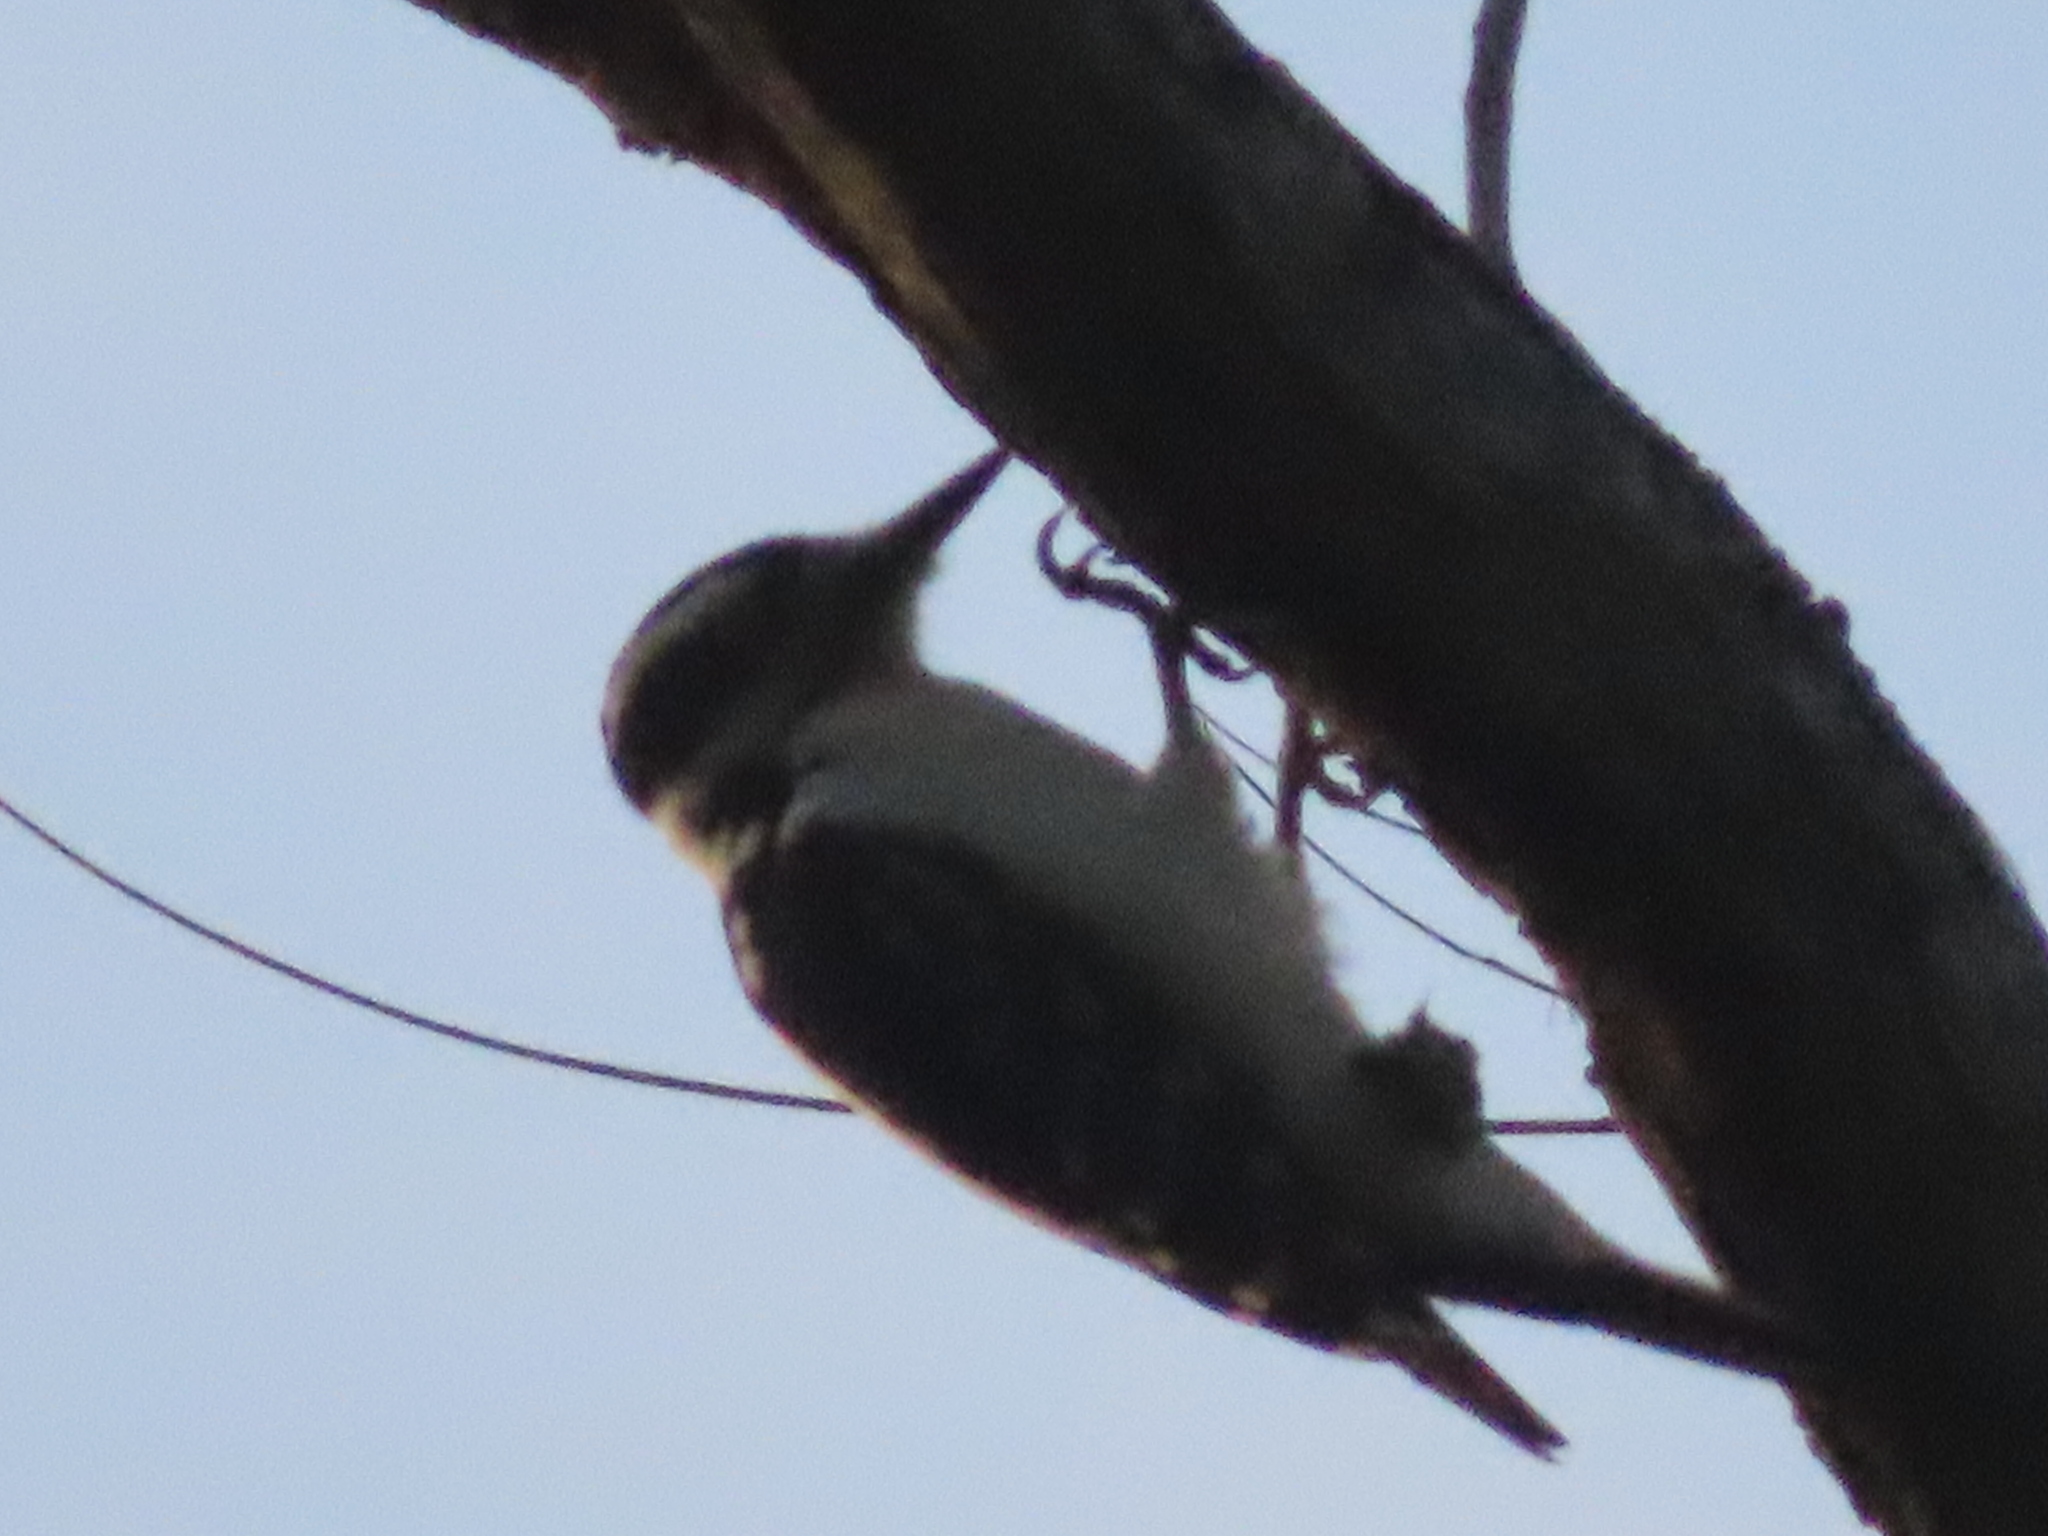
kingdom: Animalia
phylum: Chordata
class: Aves
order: Piciformes
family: Picidae
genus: Dryobates
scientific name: Dryobates pubescens
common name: Downy woodpecker
